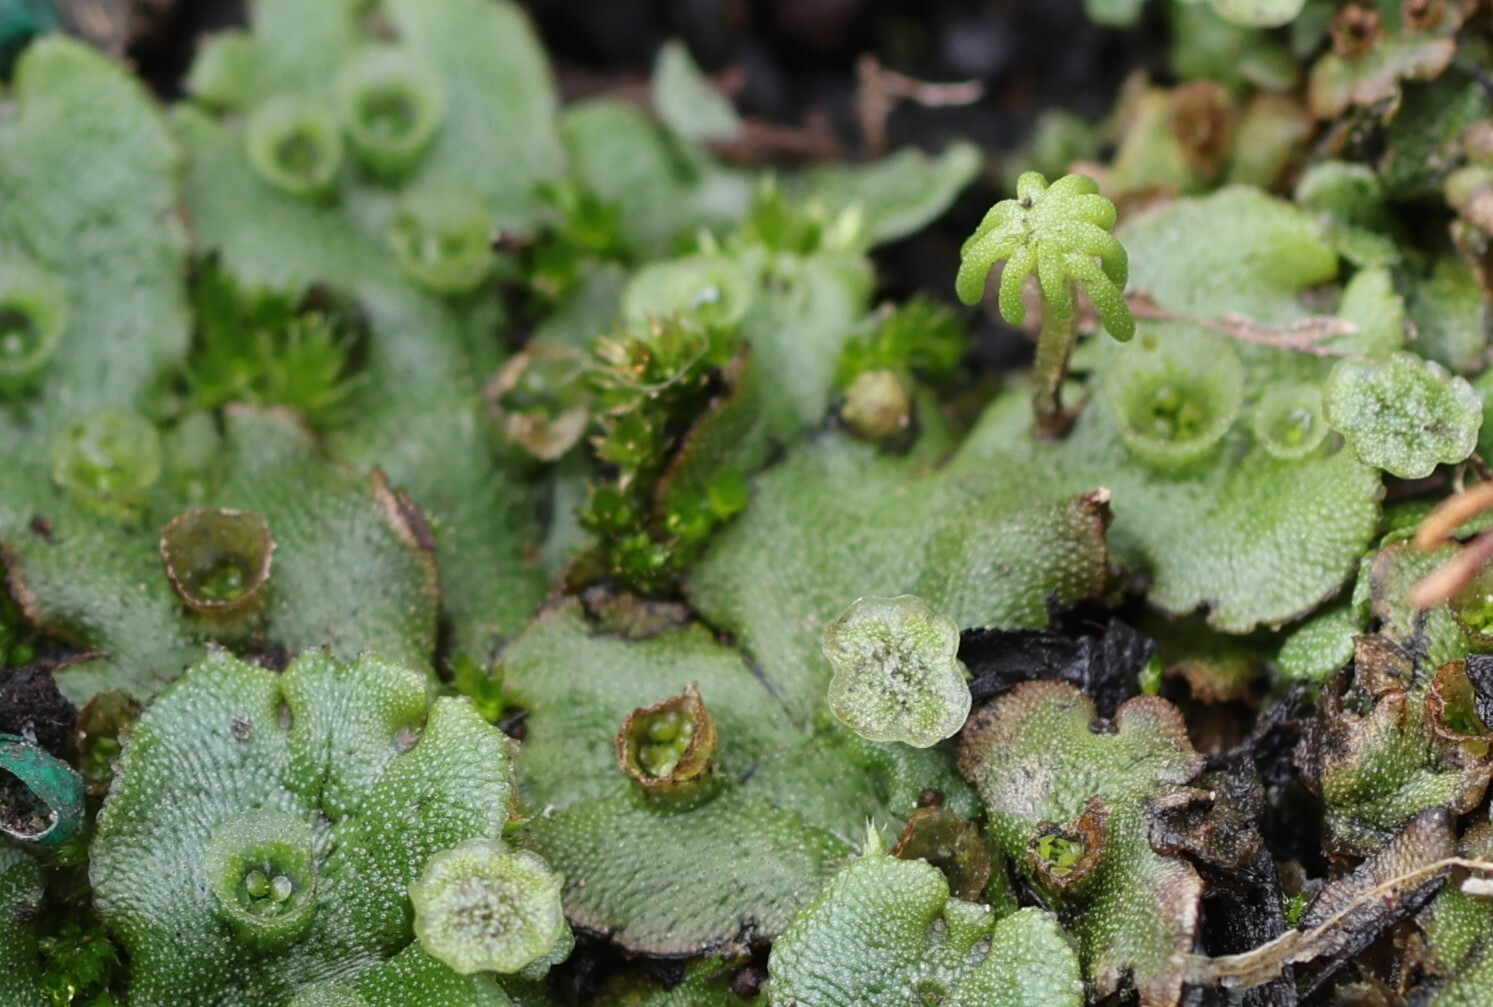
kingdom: Plantae
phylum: Marchantiophyta
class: Marchantiopsida
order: Marchantiales
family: Marchantiaceae
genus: Marchantia
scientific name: Marchantia polymorpha
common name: Common liverwort
